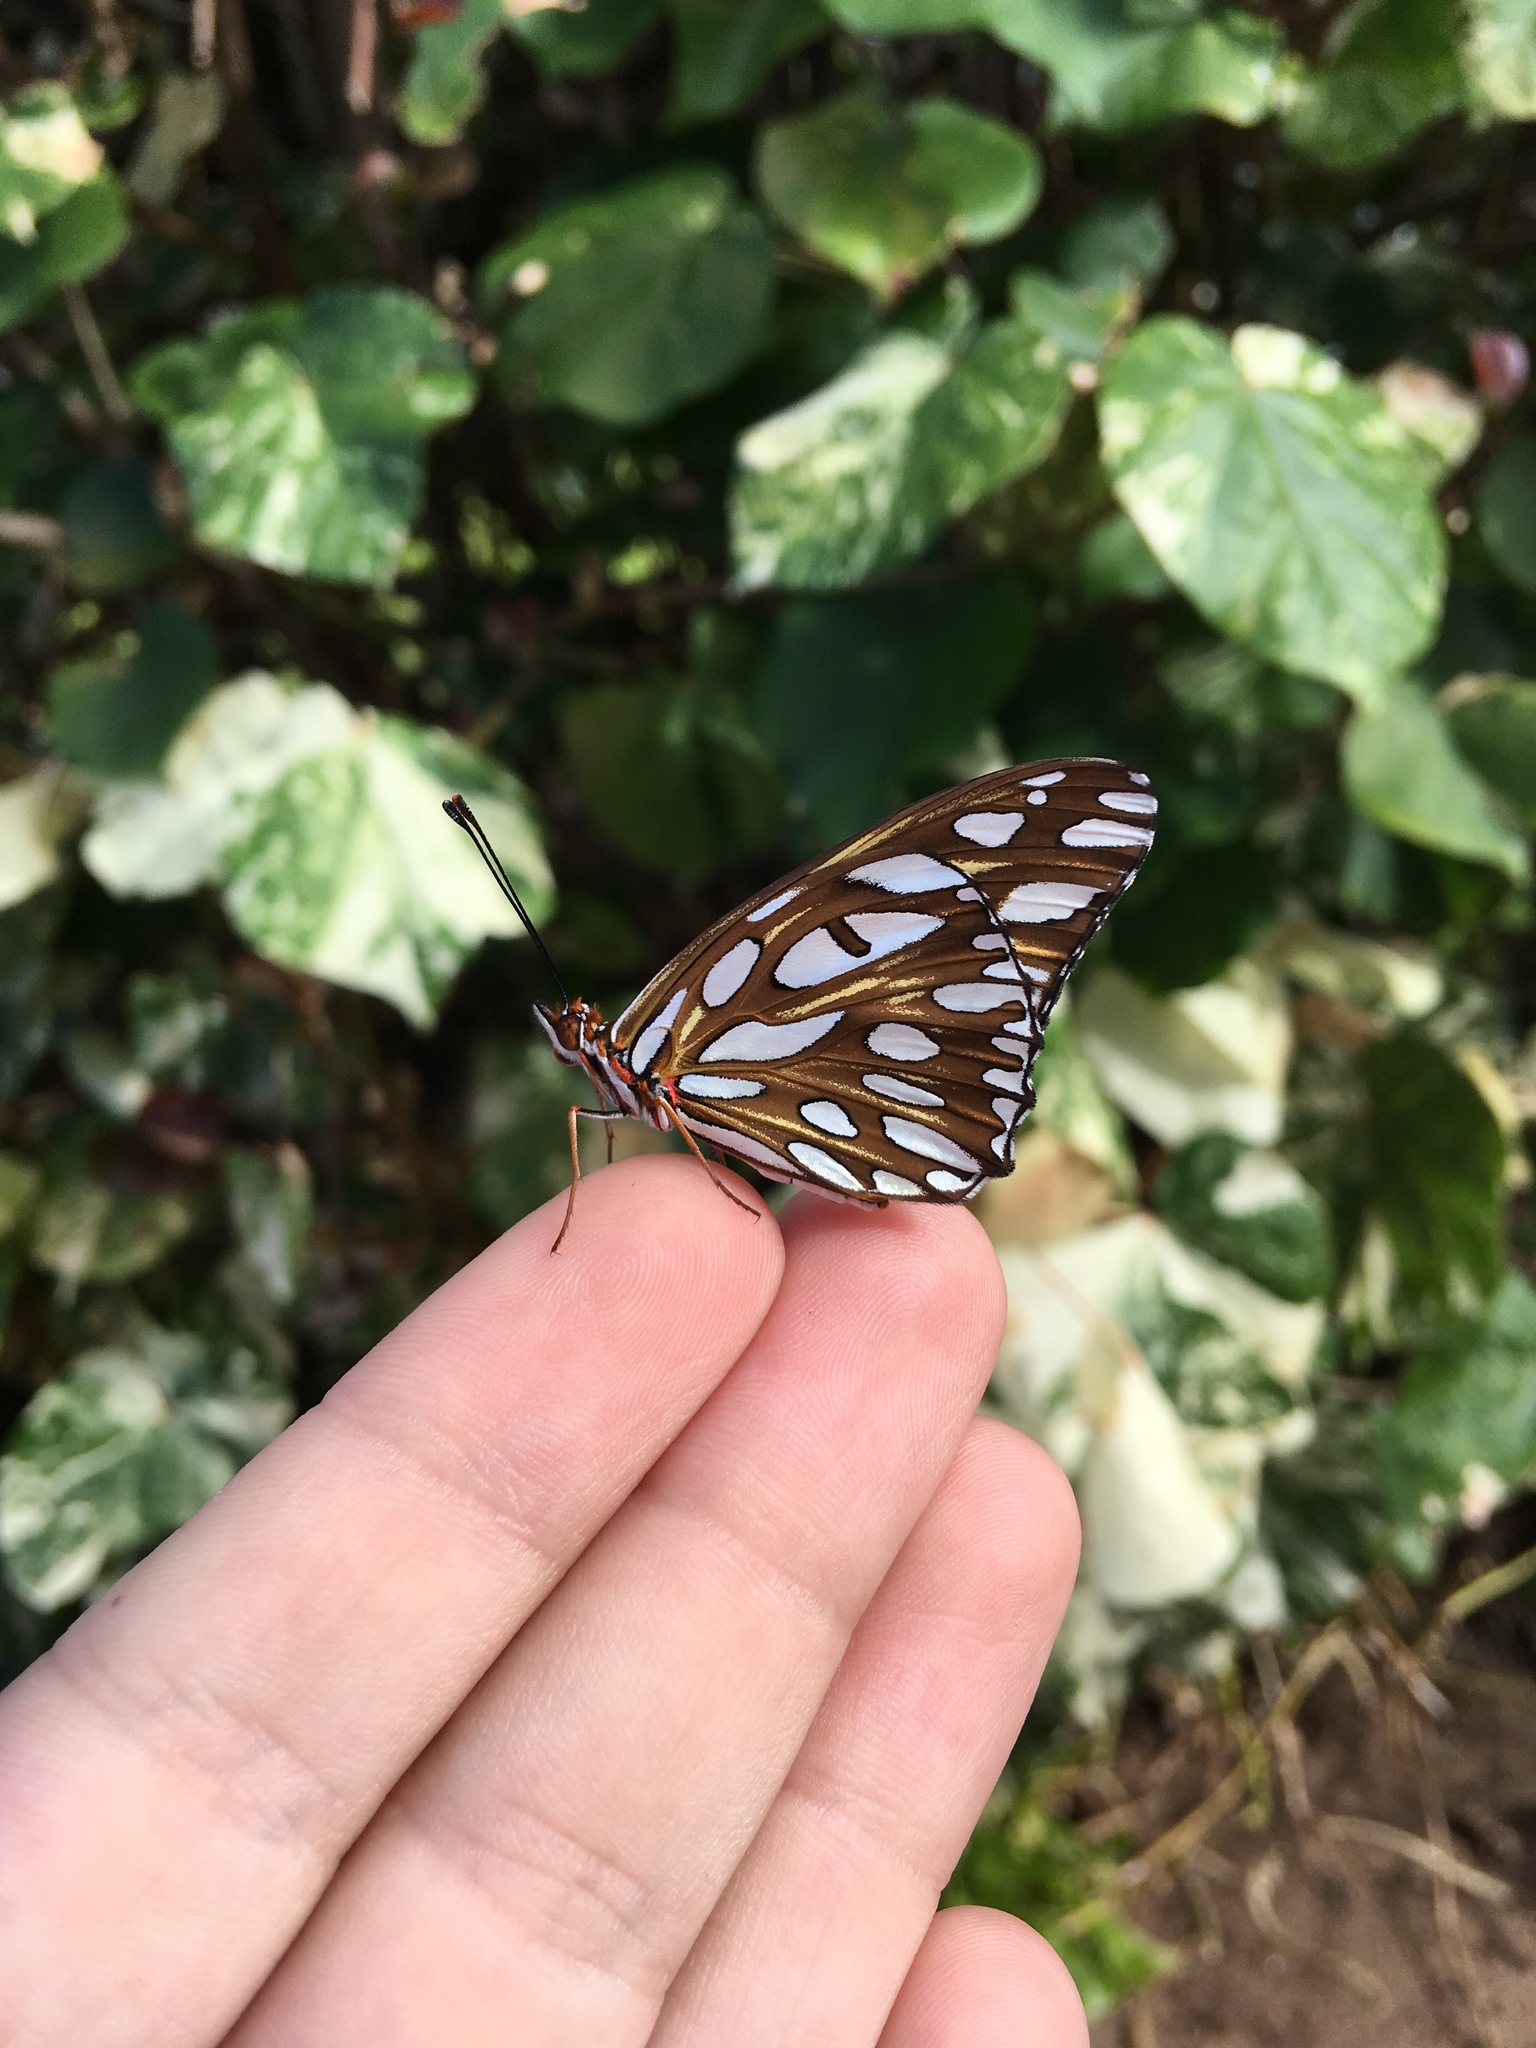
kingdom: Animalia
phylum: Arthropoda
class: Insecta
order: Lepidoptera
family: Nymphalidae
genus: Dione
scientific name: Dione vanillae
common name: Gulf fritillary
